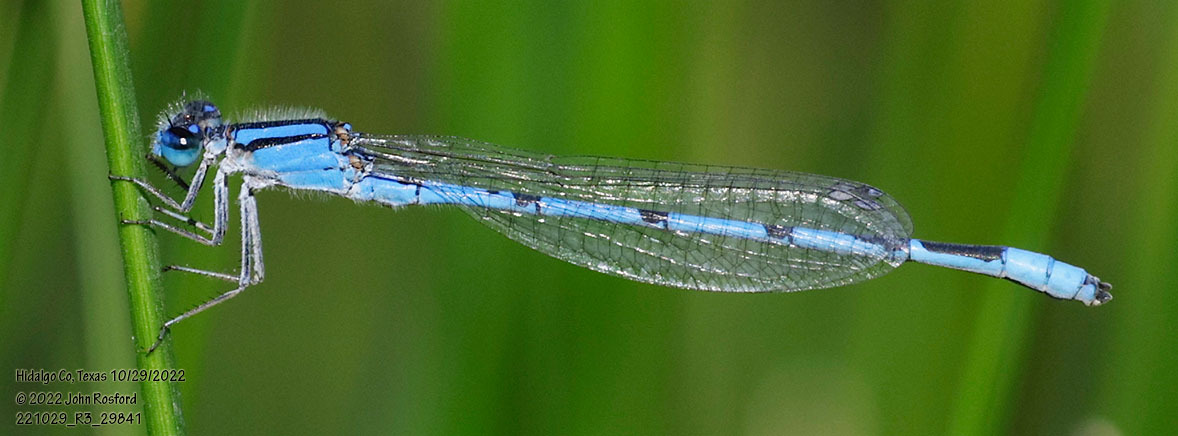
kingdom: Animalia
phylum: Arthropoda
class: Insecta
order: Odonata
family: Coenagrionidae
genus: Enallagma
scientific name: Enallagma civile
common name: Damselfly
